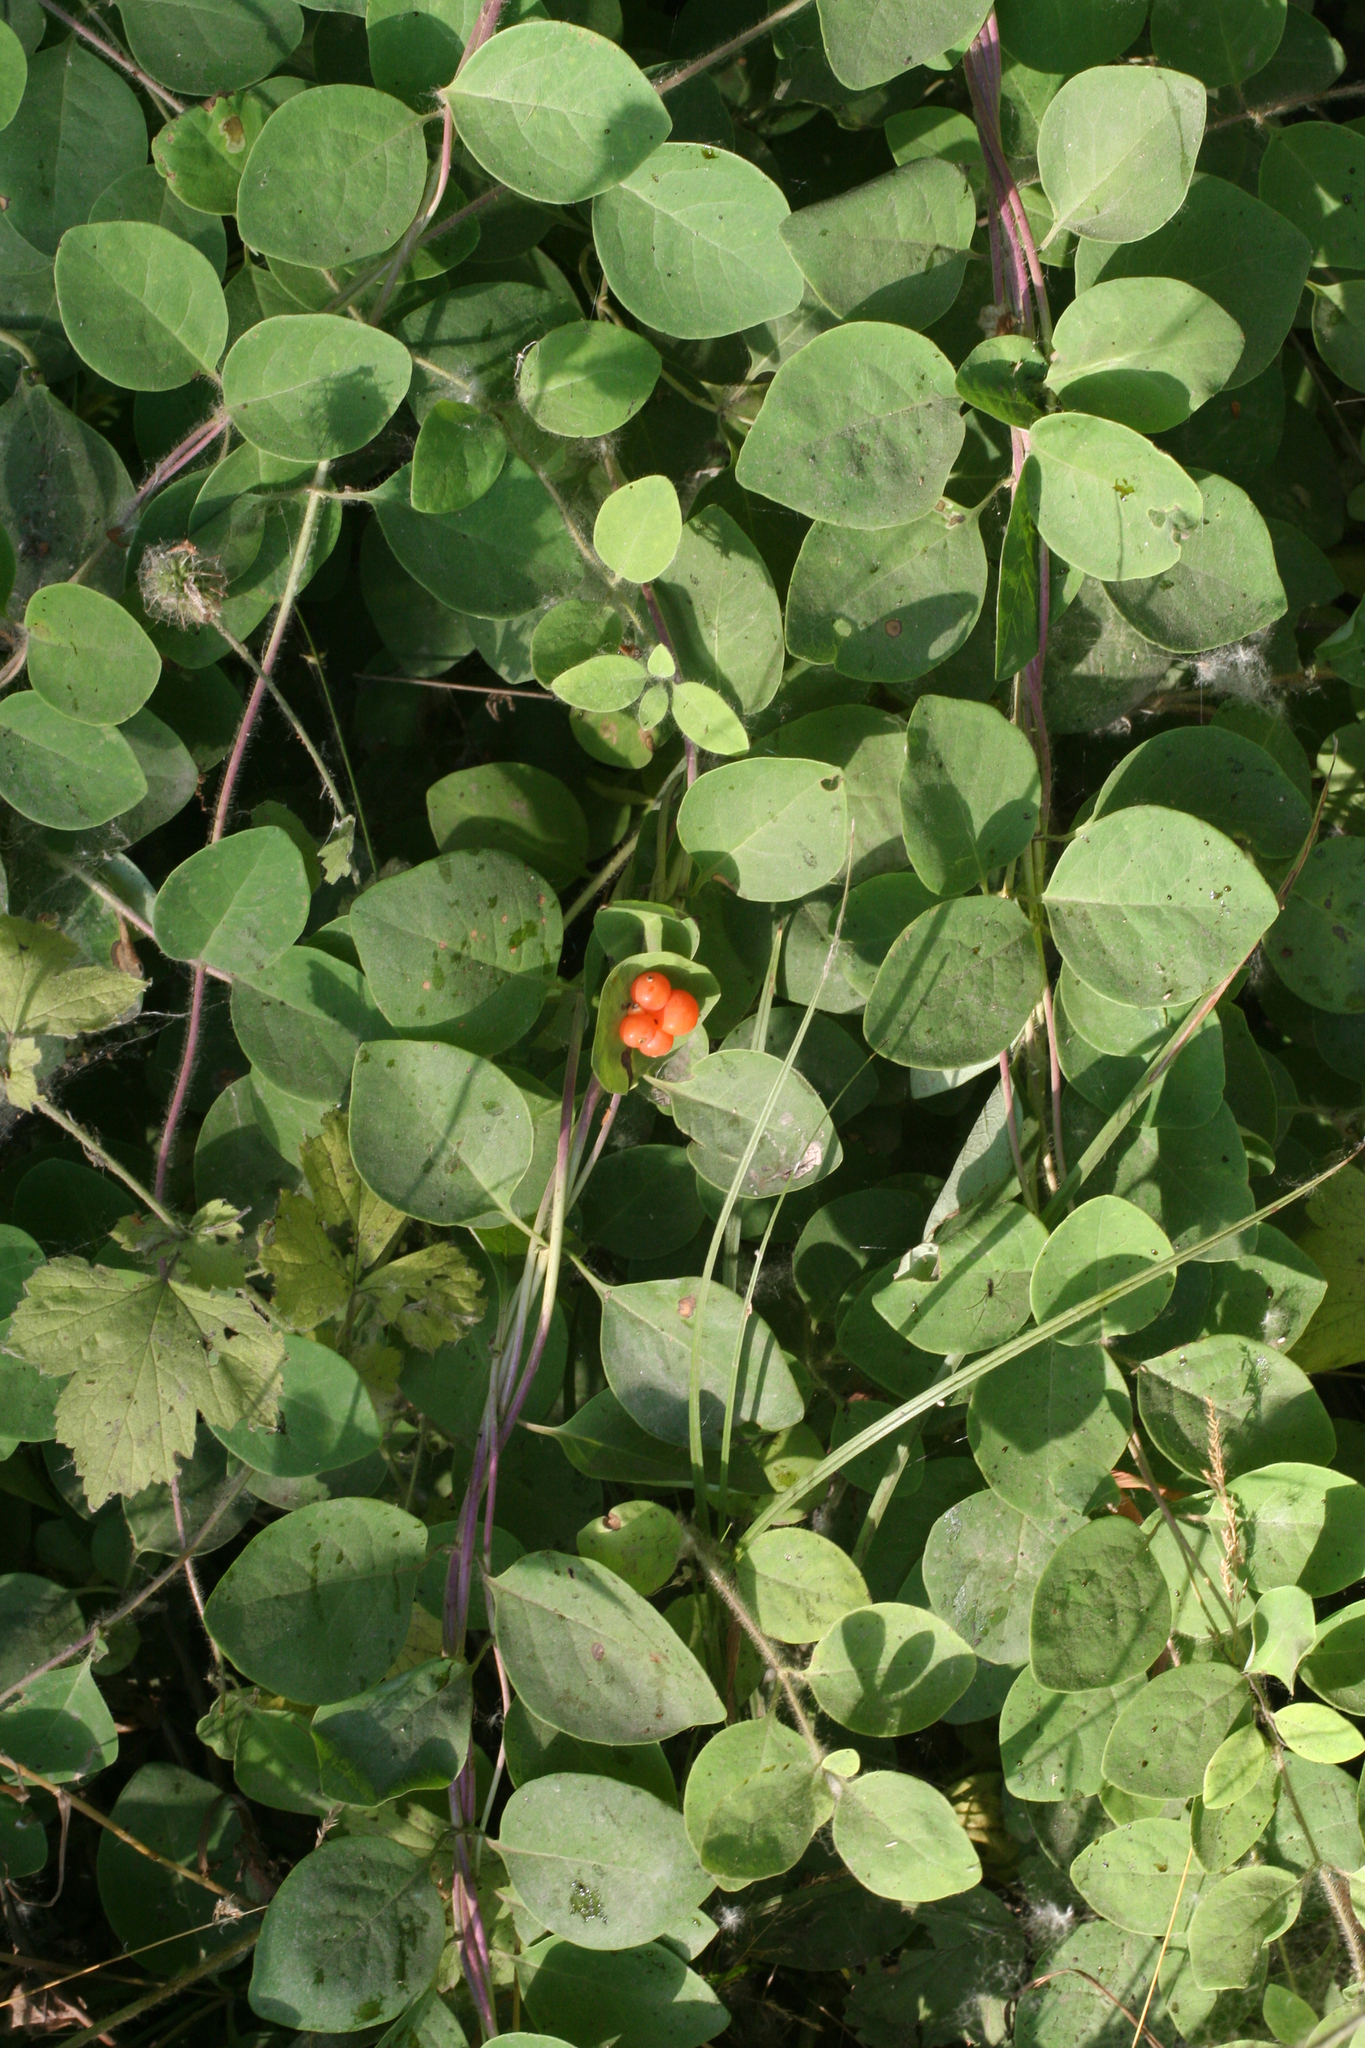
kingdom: Plantae
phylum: Tracheophyta
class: Magnoliopsida
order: Dipsacales
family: Caprifoliaceae
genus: Lonicera
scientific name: Lonicera caprifolium
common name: Perfoliate honeysuckle
